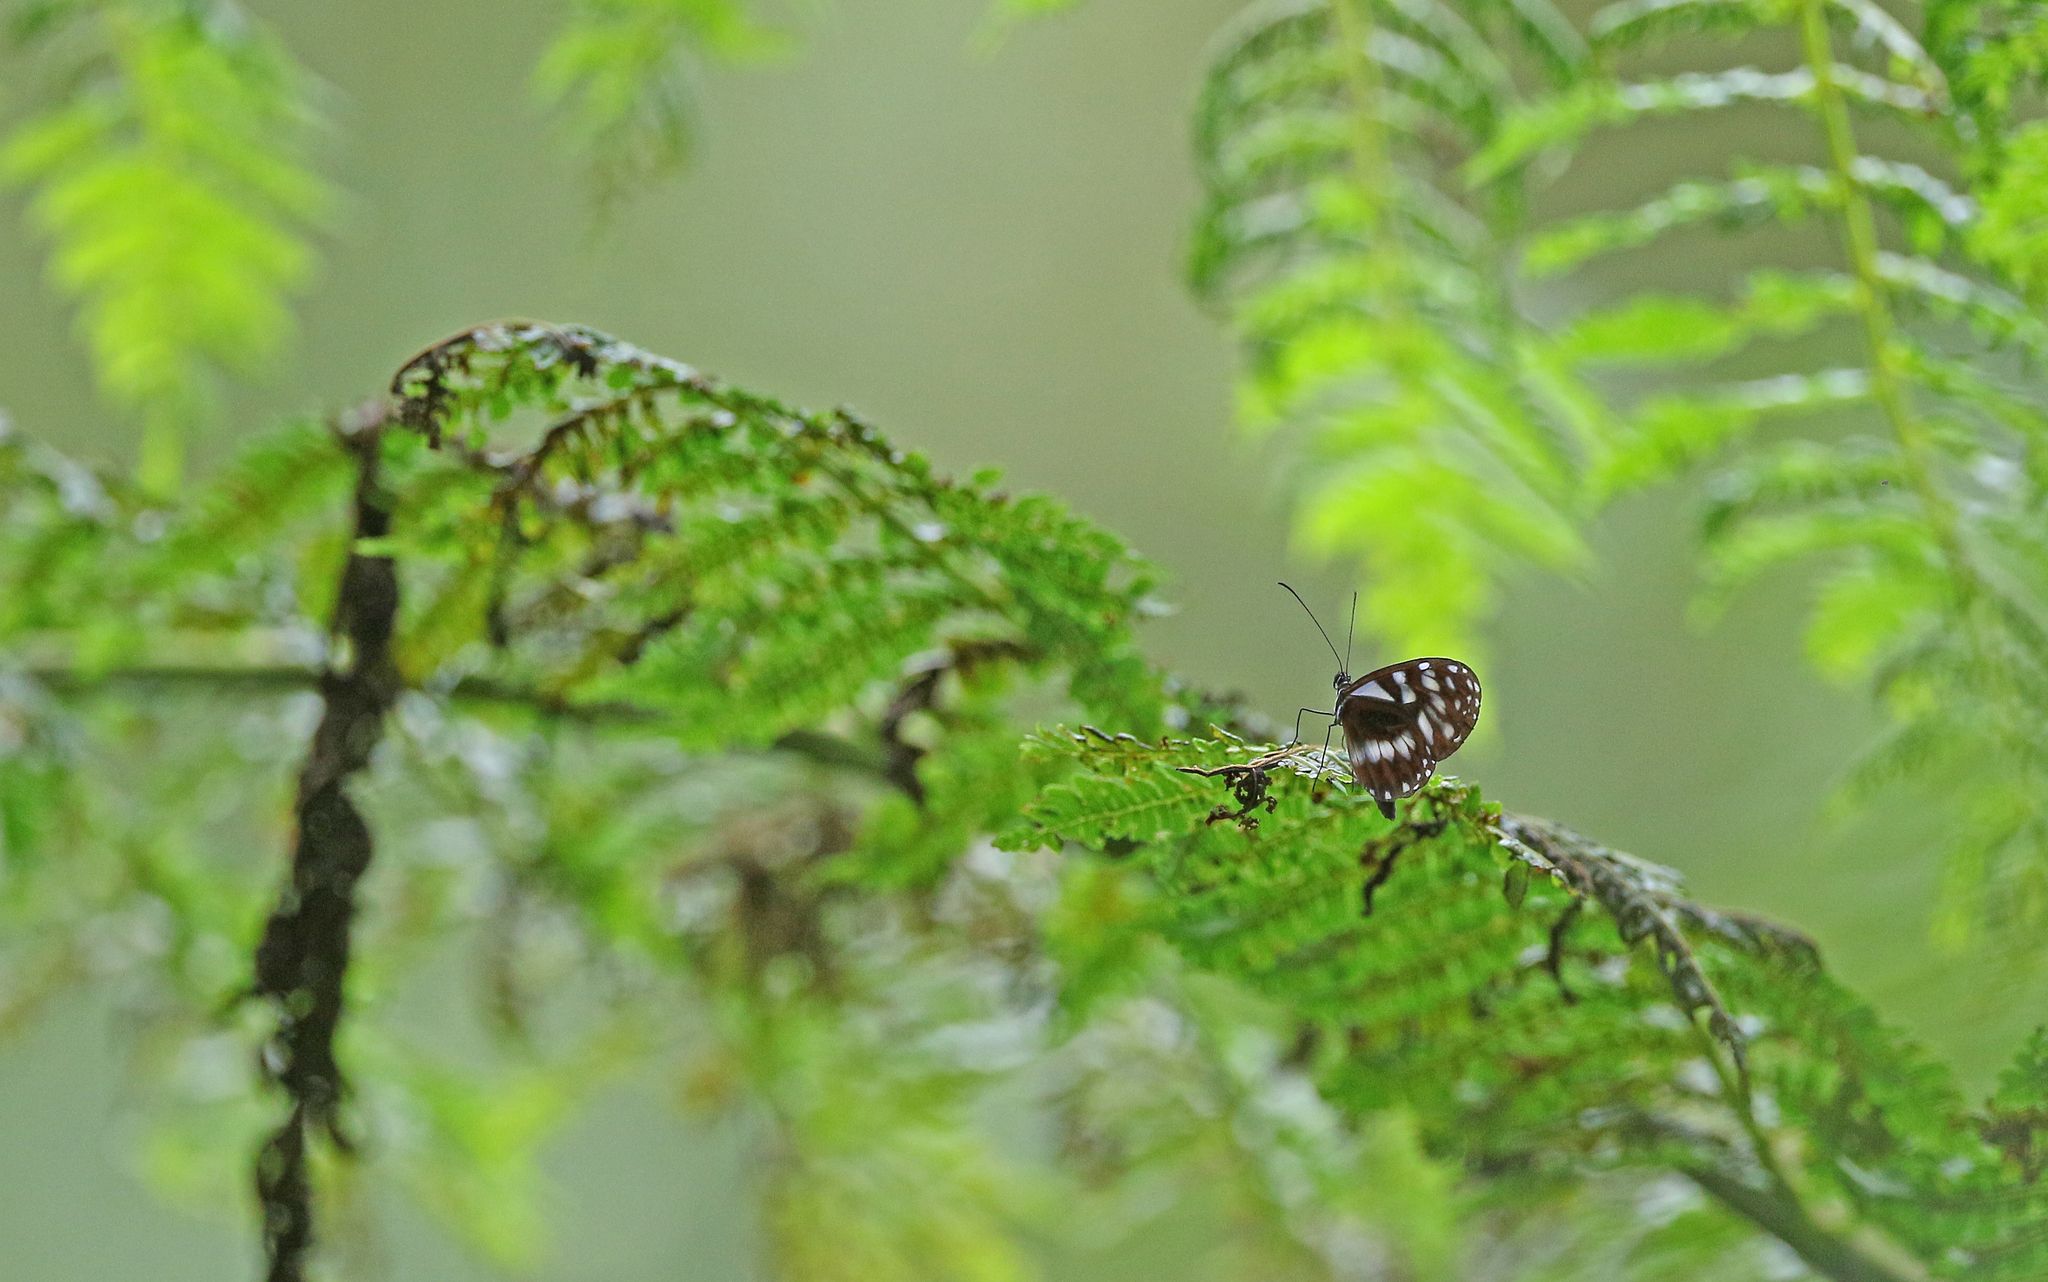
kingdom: Animalia
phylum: Arthropoda
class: Insecta
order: Lepidoptera
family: Nymphalidae
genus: Oleria
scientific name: Oleria cyrene
